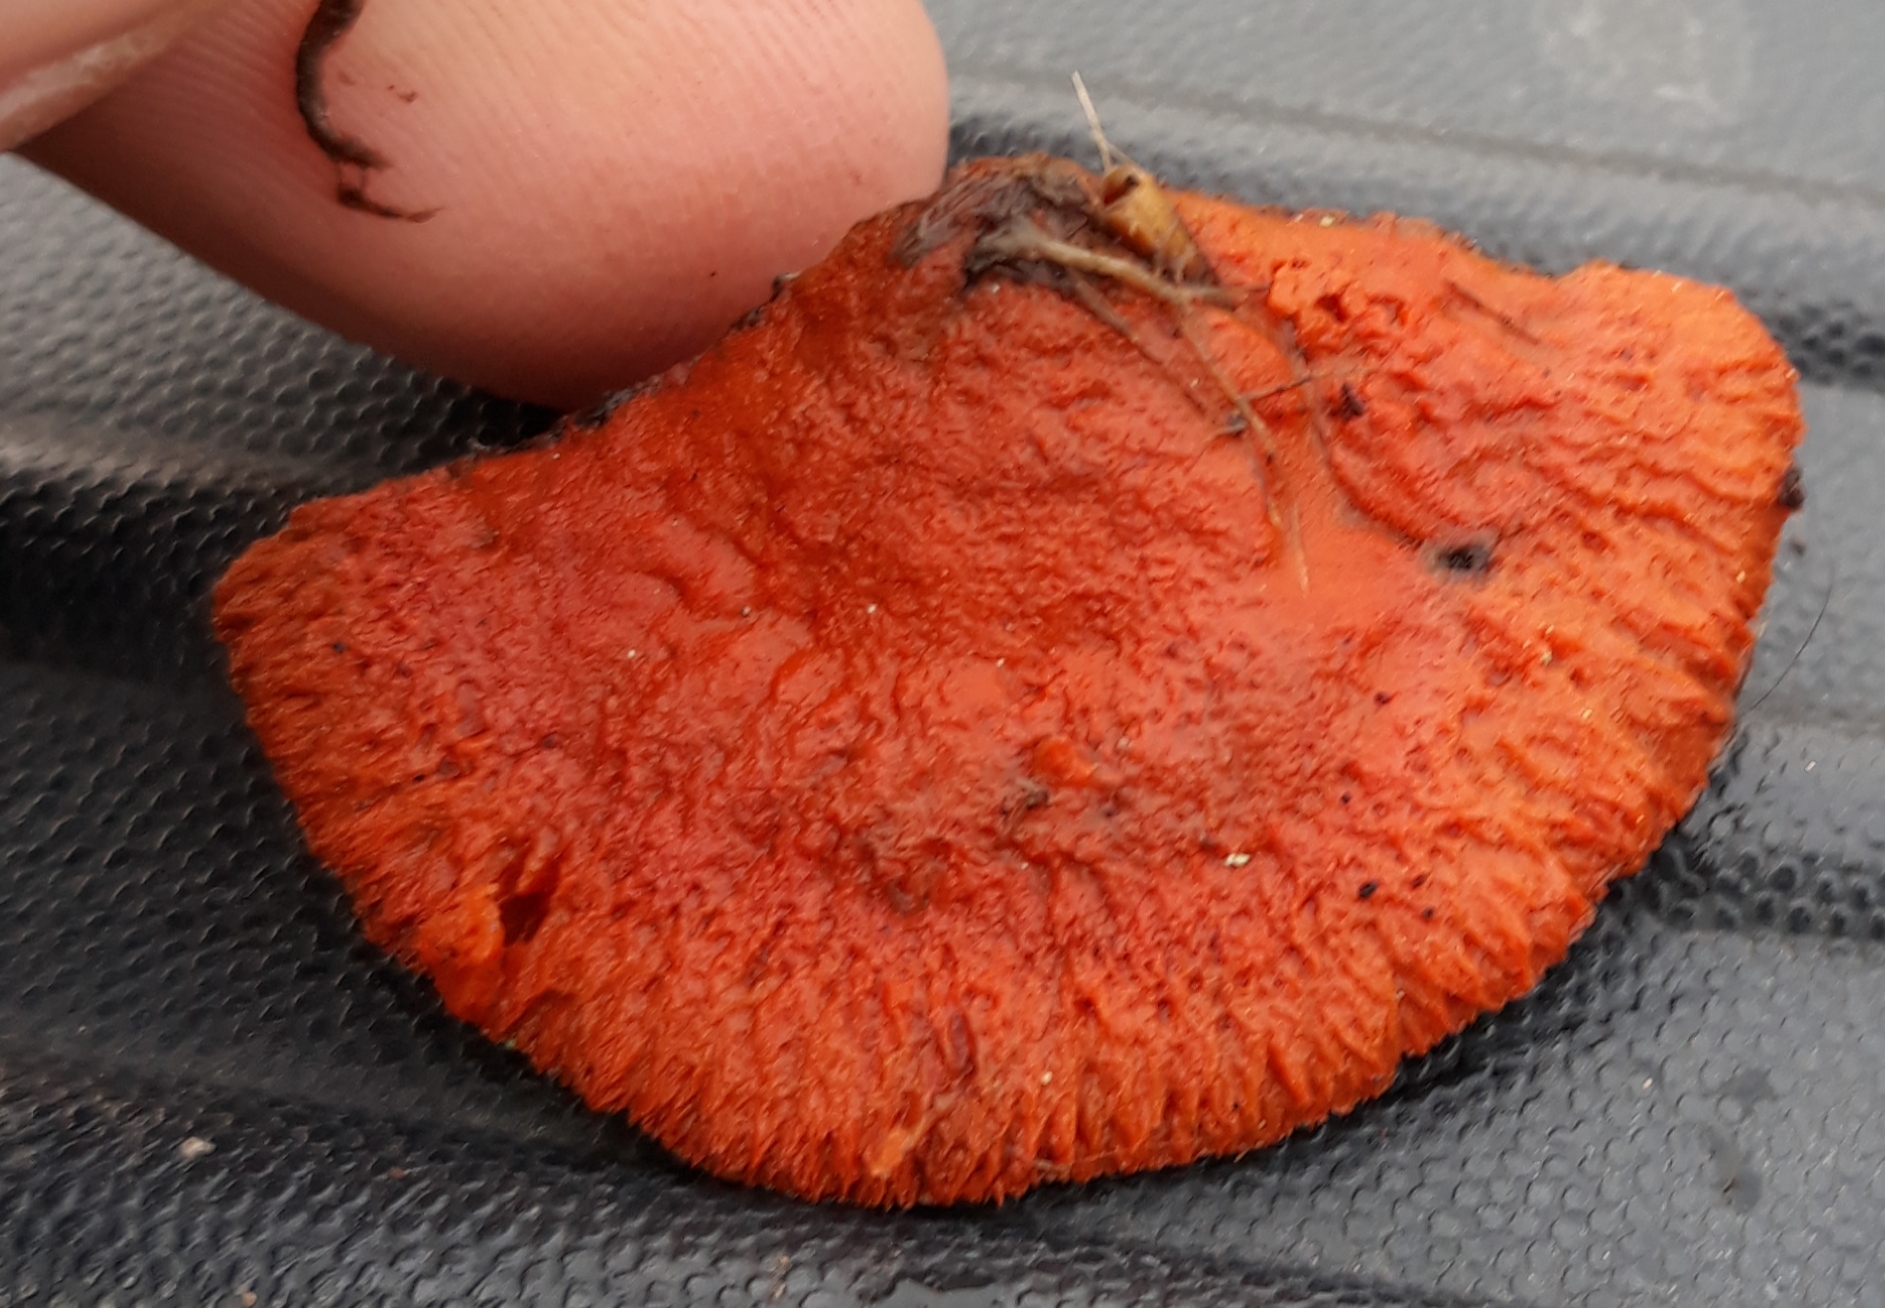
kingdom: Fungi
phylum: Basidiomycota
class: Agaricomycetes
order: Polyporales
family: Polyporaceae
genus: Trametes
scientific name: Trametes cinnabarina
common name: Northern cinnabar polypore
